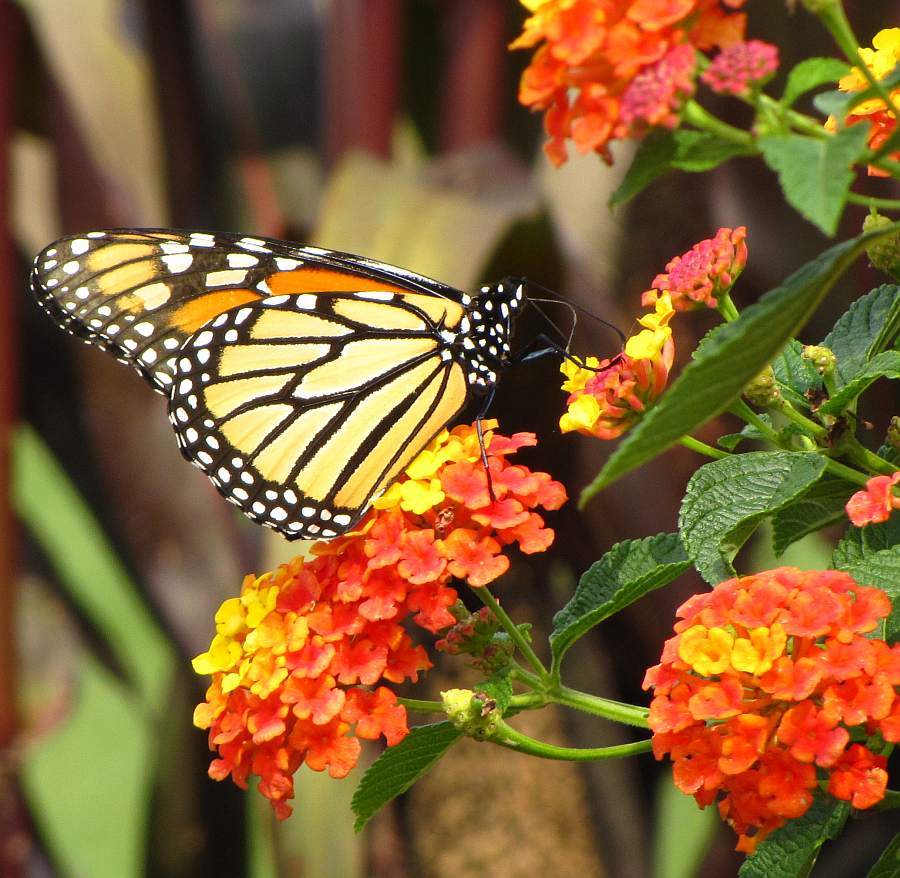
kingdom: Animalia
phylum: Arthropoda
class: Insecta
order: Lepidoptera
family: Nymphalidae
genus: Danaus
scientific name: Danaus plexippus
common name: Monarch
